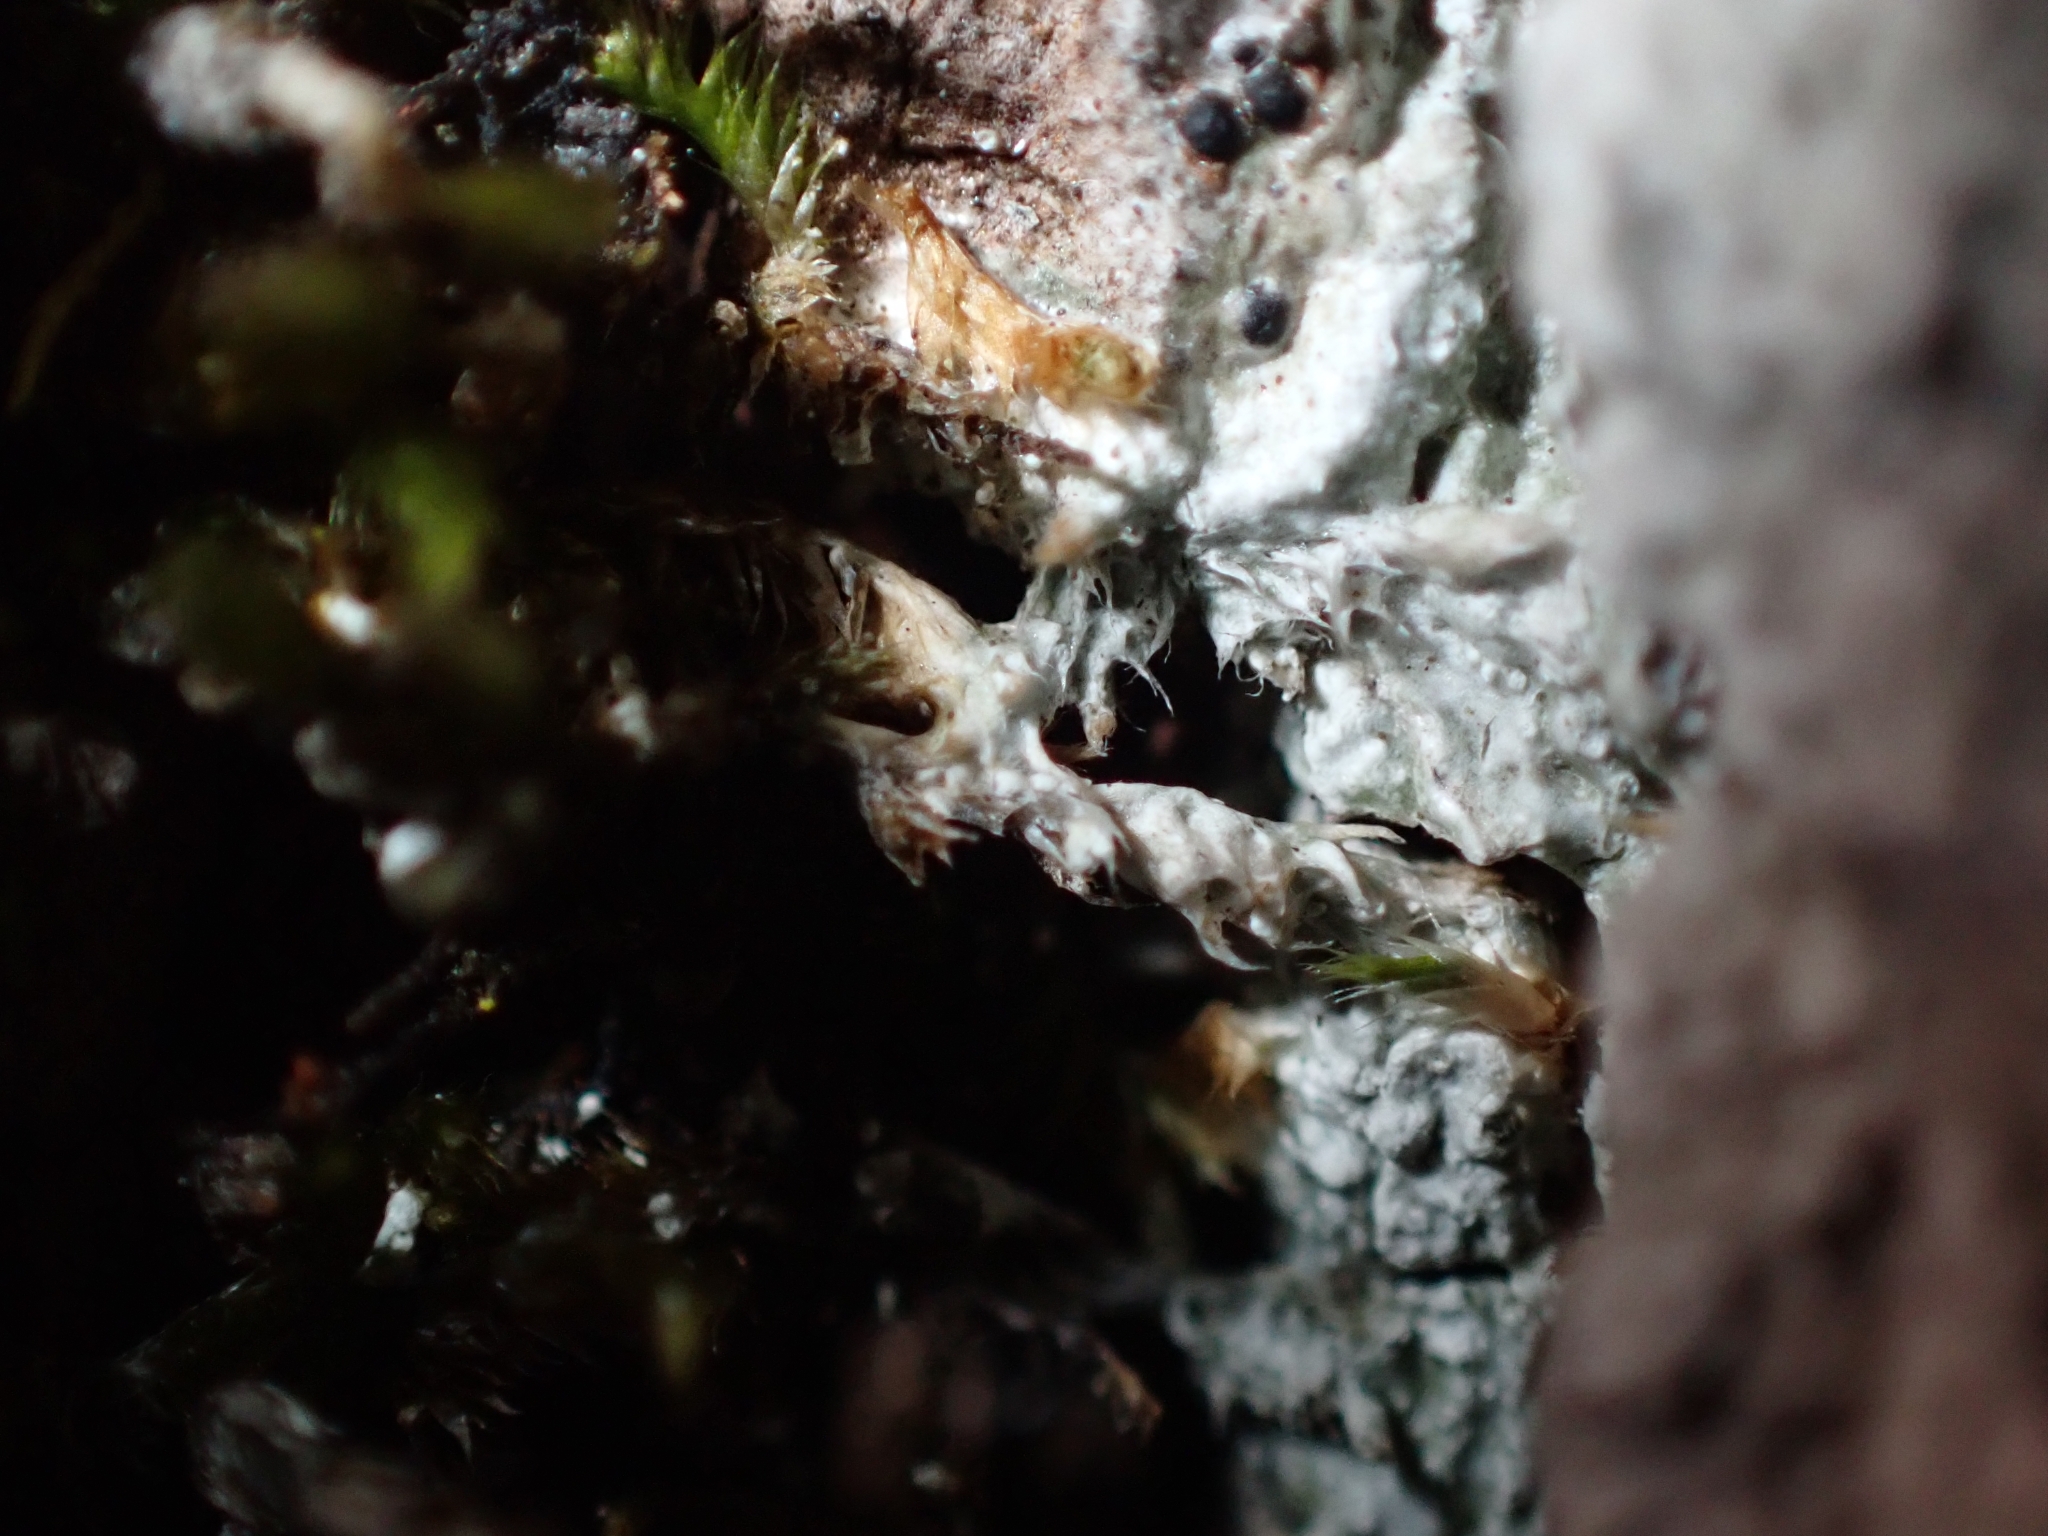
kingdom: Fungi
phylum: Ascomycota
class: Lecanoromycetes
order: Pertusariales
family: Pertusariaceae
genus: Lepra
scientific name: Lepra albescens
